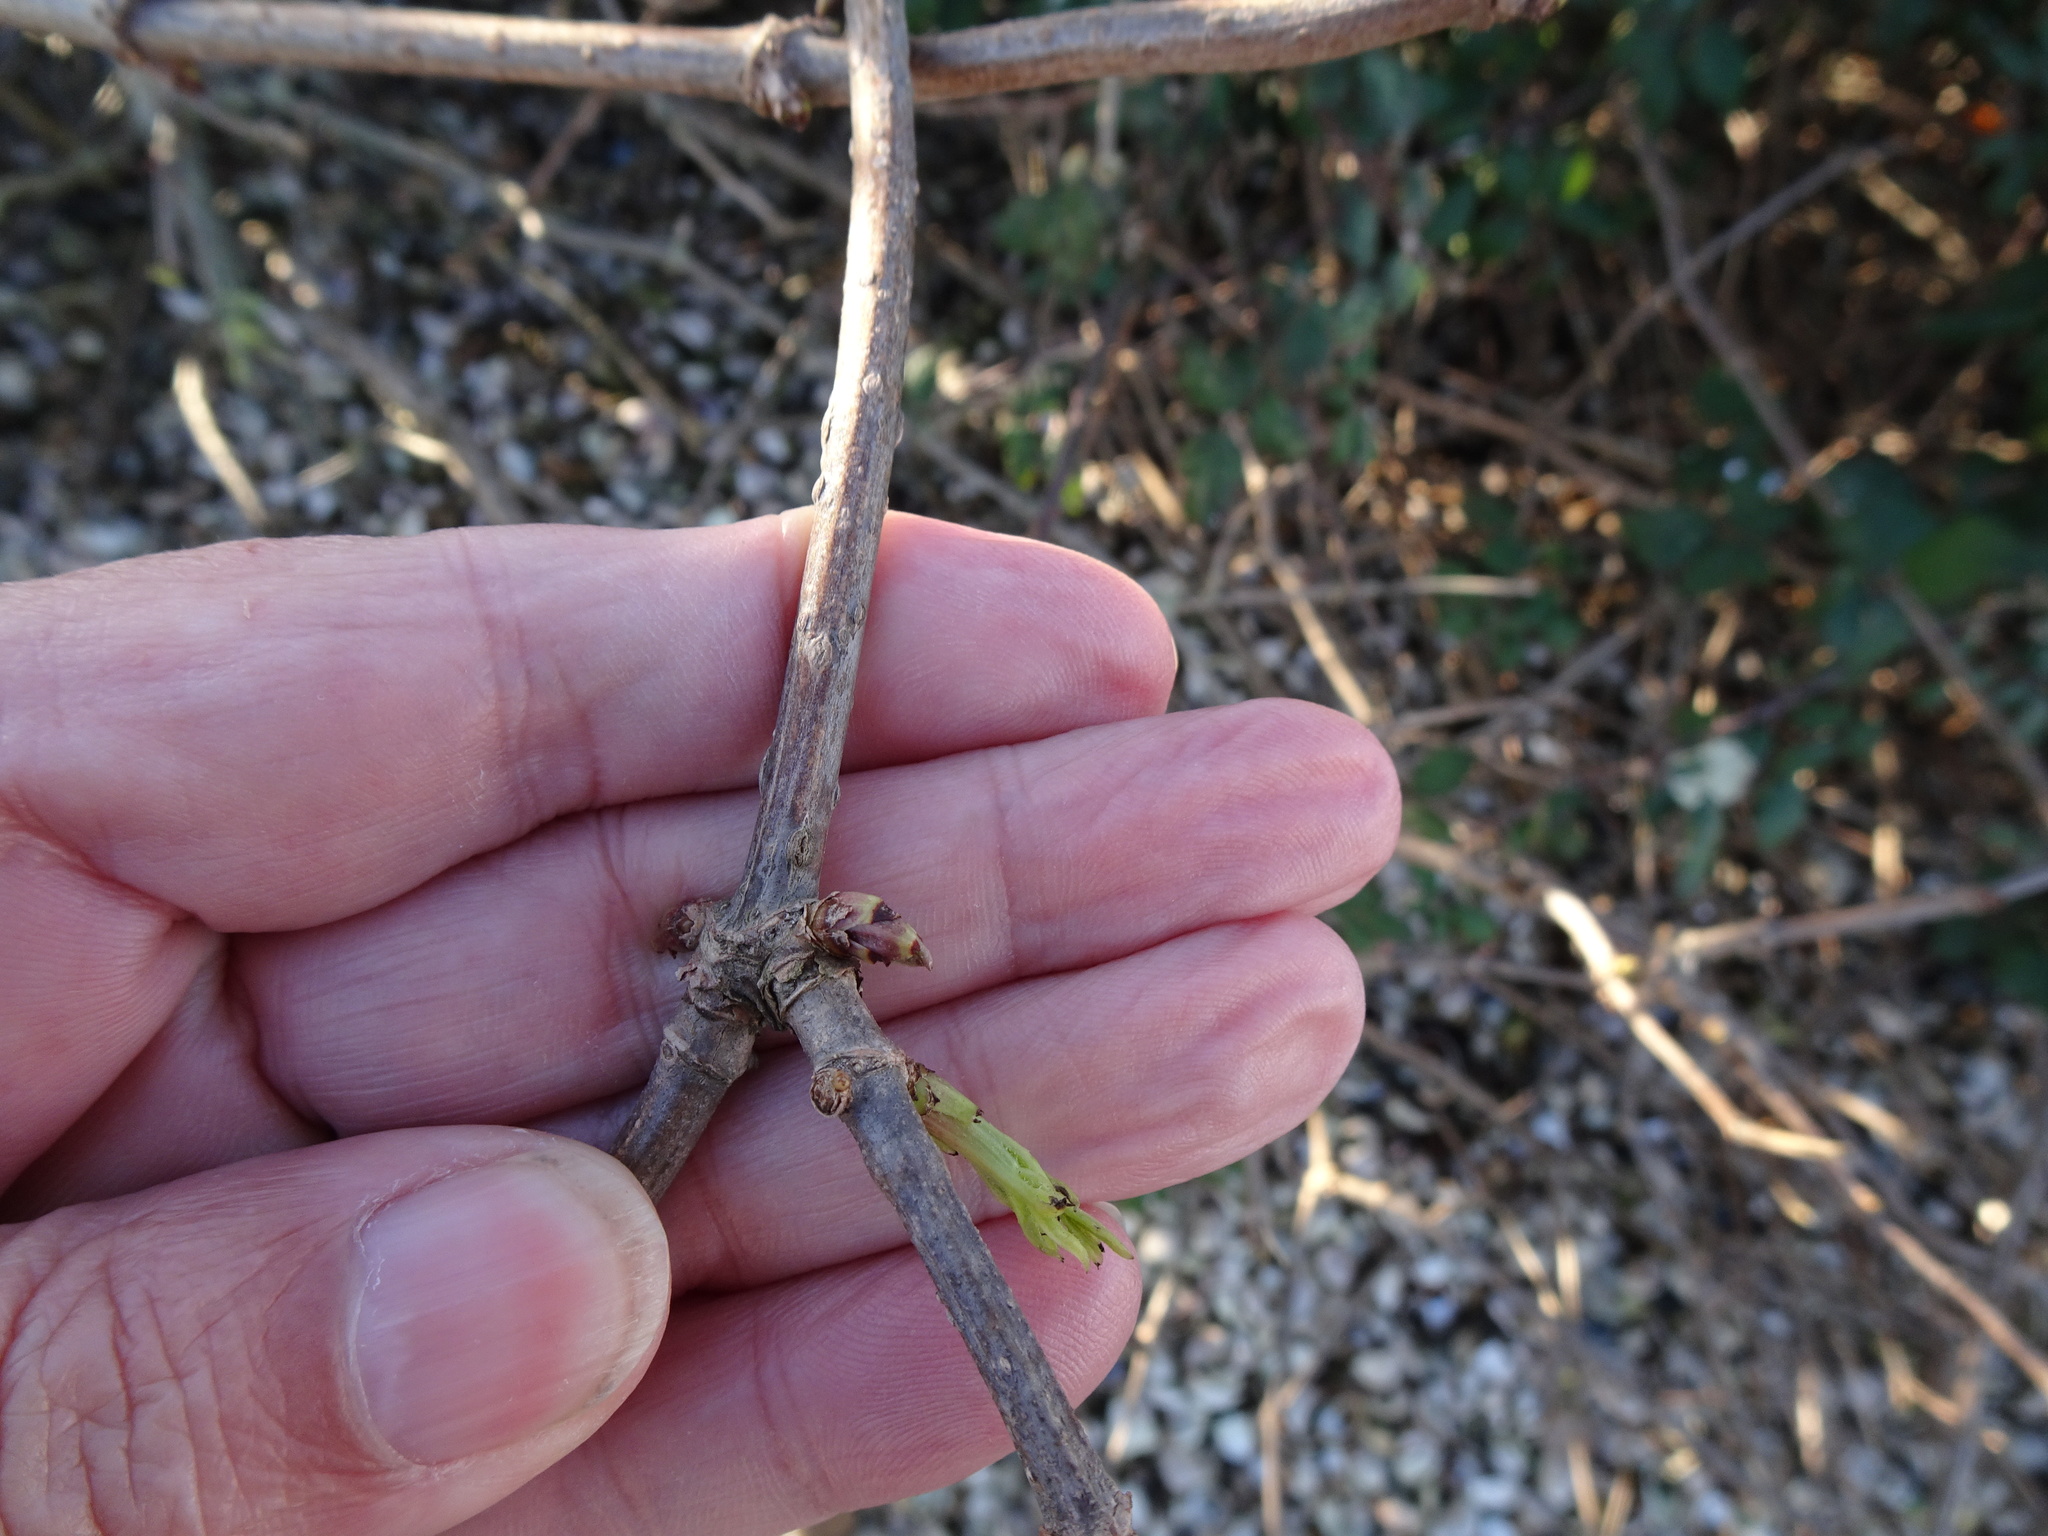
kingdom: Plantae
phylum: Tracheophyta
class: Magnoliopsida
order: Dipsacales
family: Viburnaceae
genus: Sambucus
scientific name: Sambucus nigra
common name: Elder
